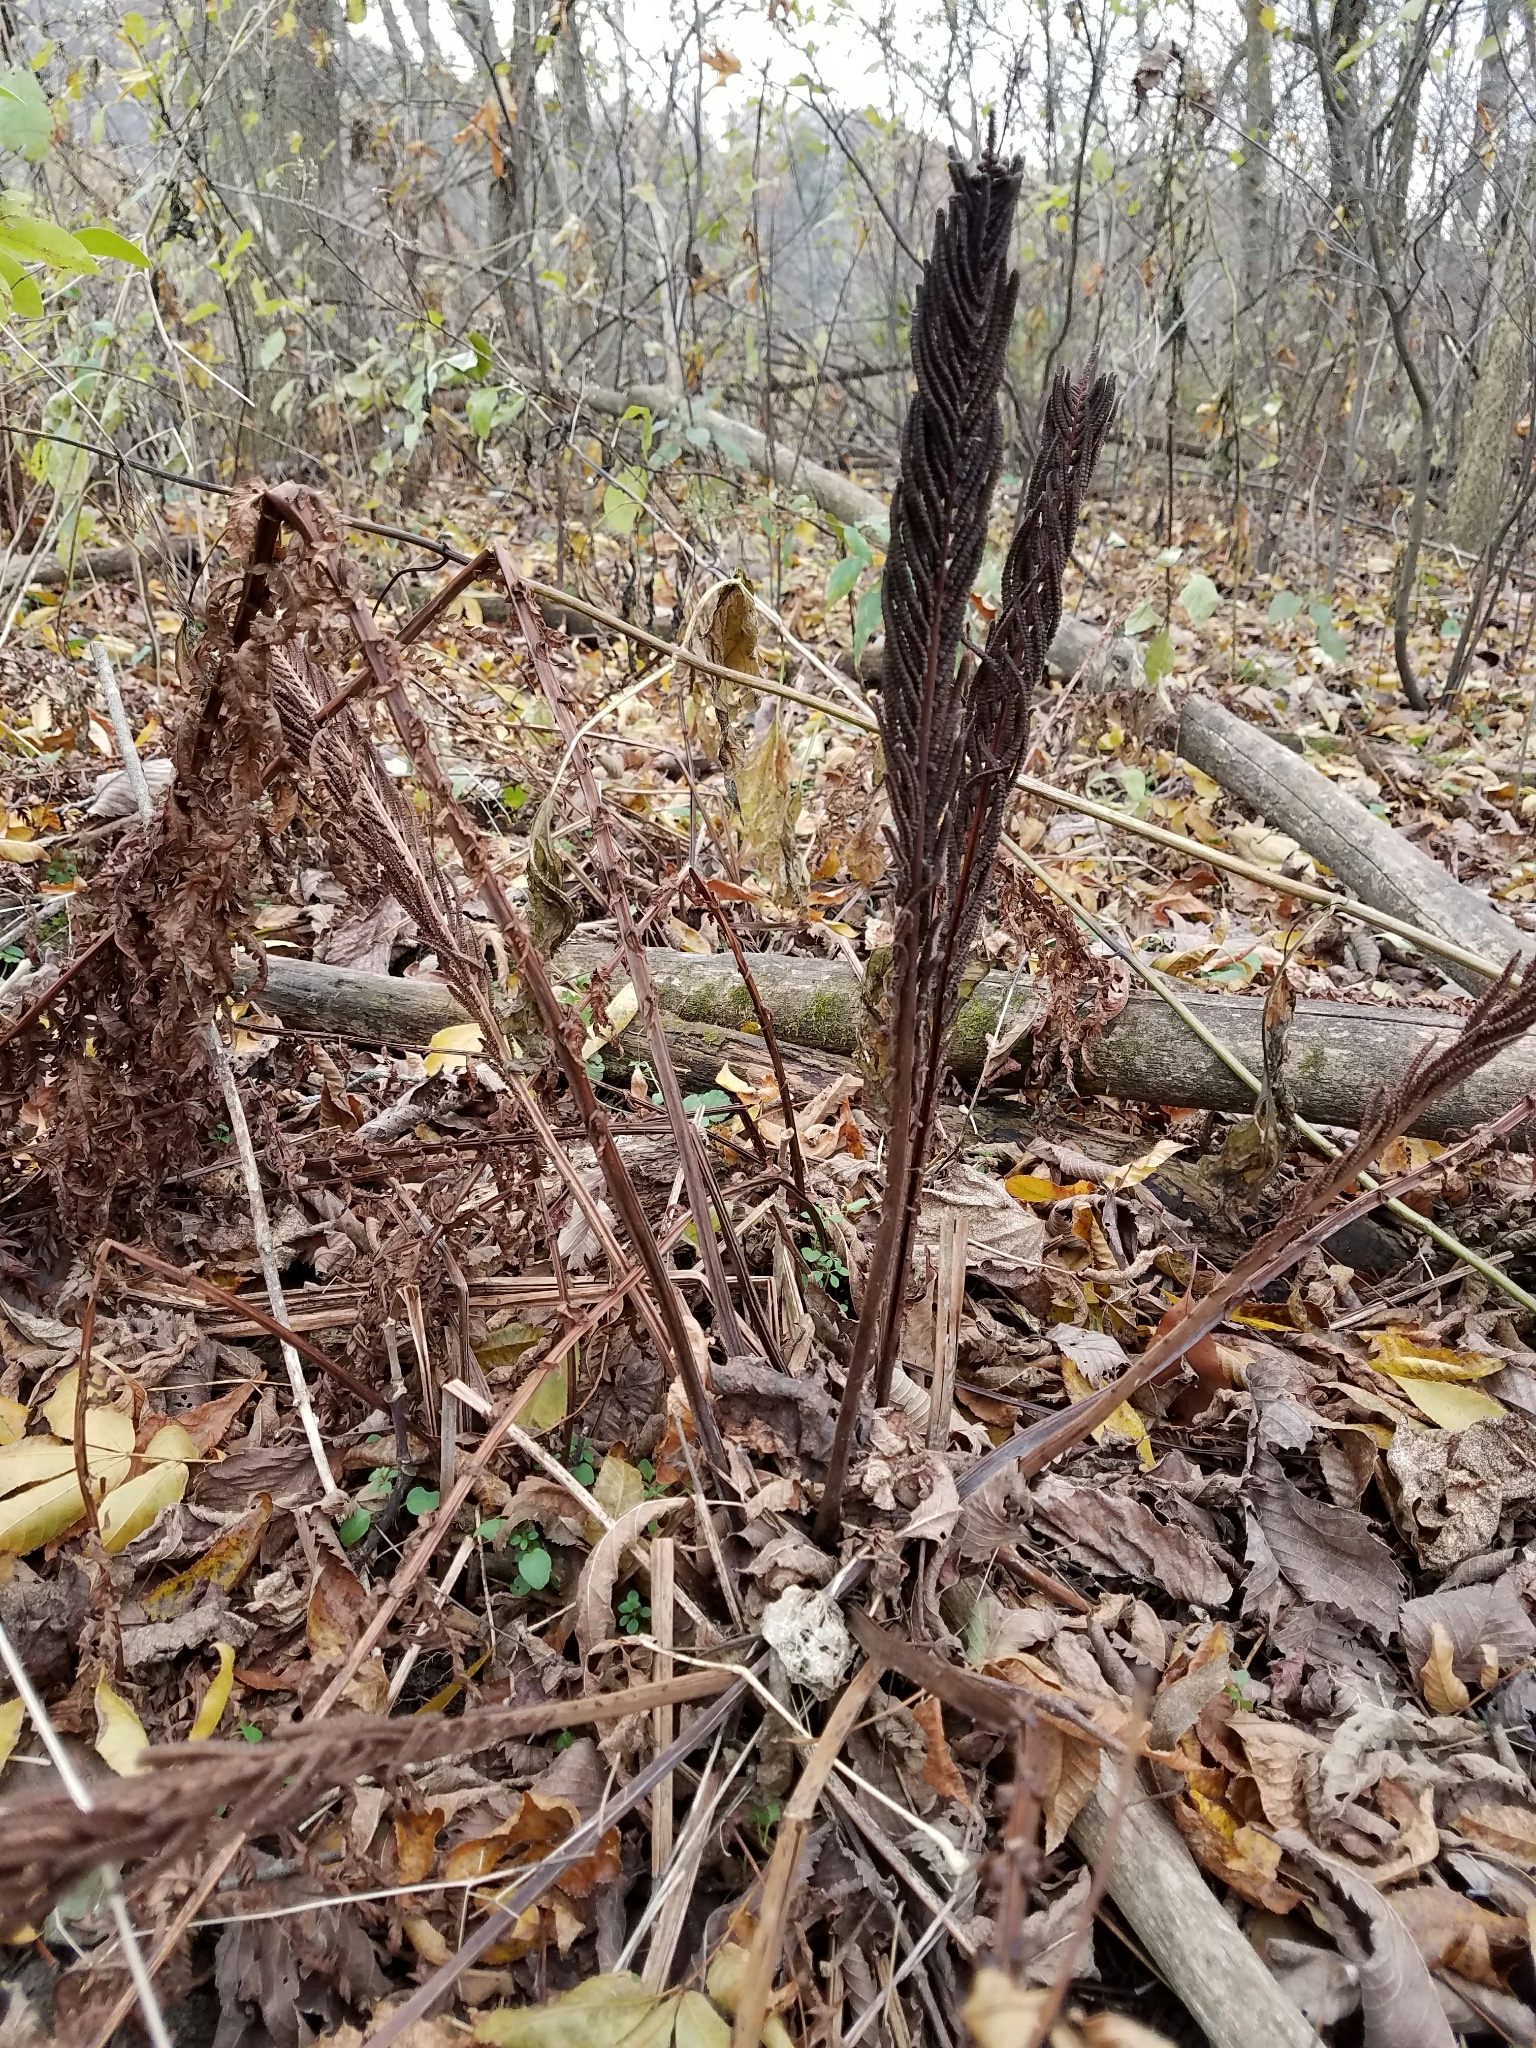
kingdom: Plantae
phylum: Tracheophyta
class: Polypodiopsida
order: Polypodiales
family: Onocleaceae
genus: Matteuccia
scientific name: Matteuccia struthiopteris
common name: Ostrich fern
